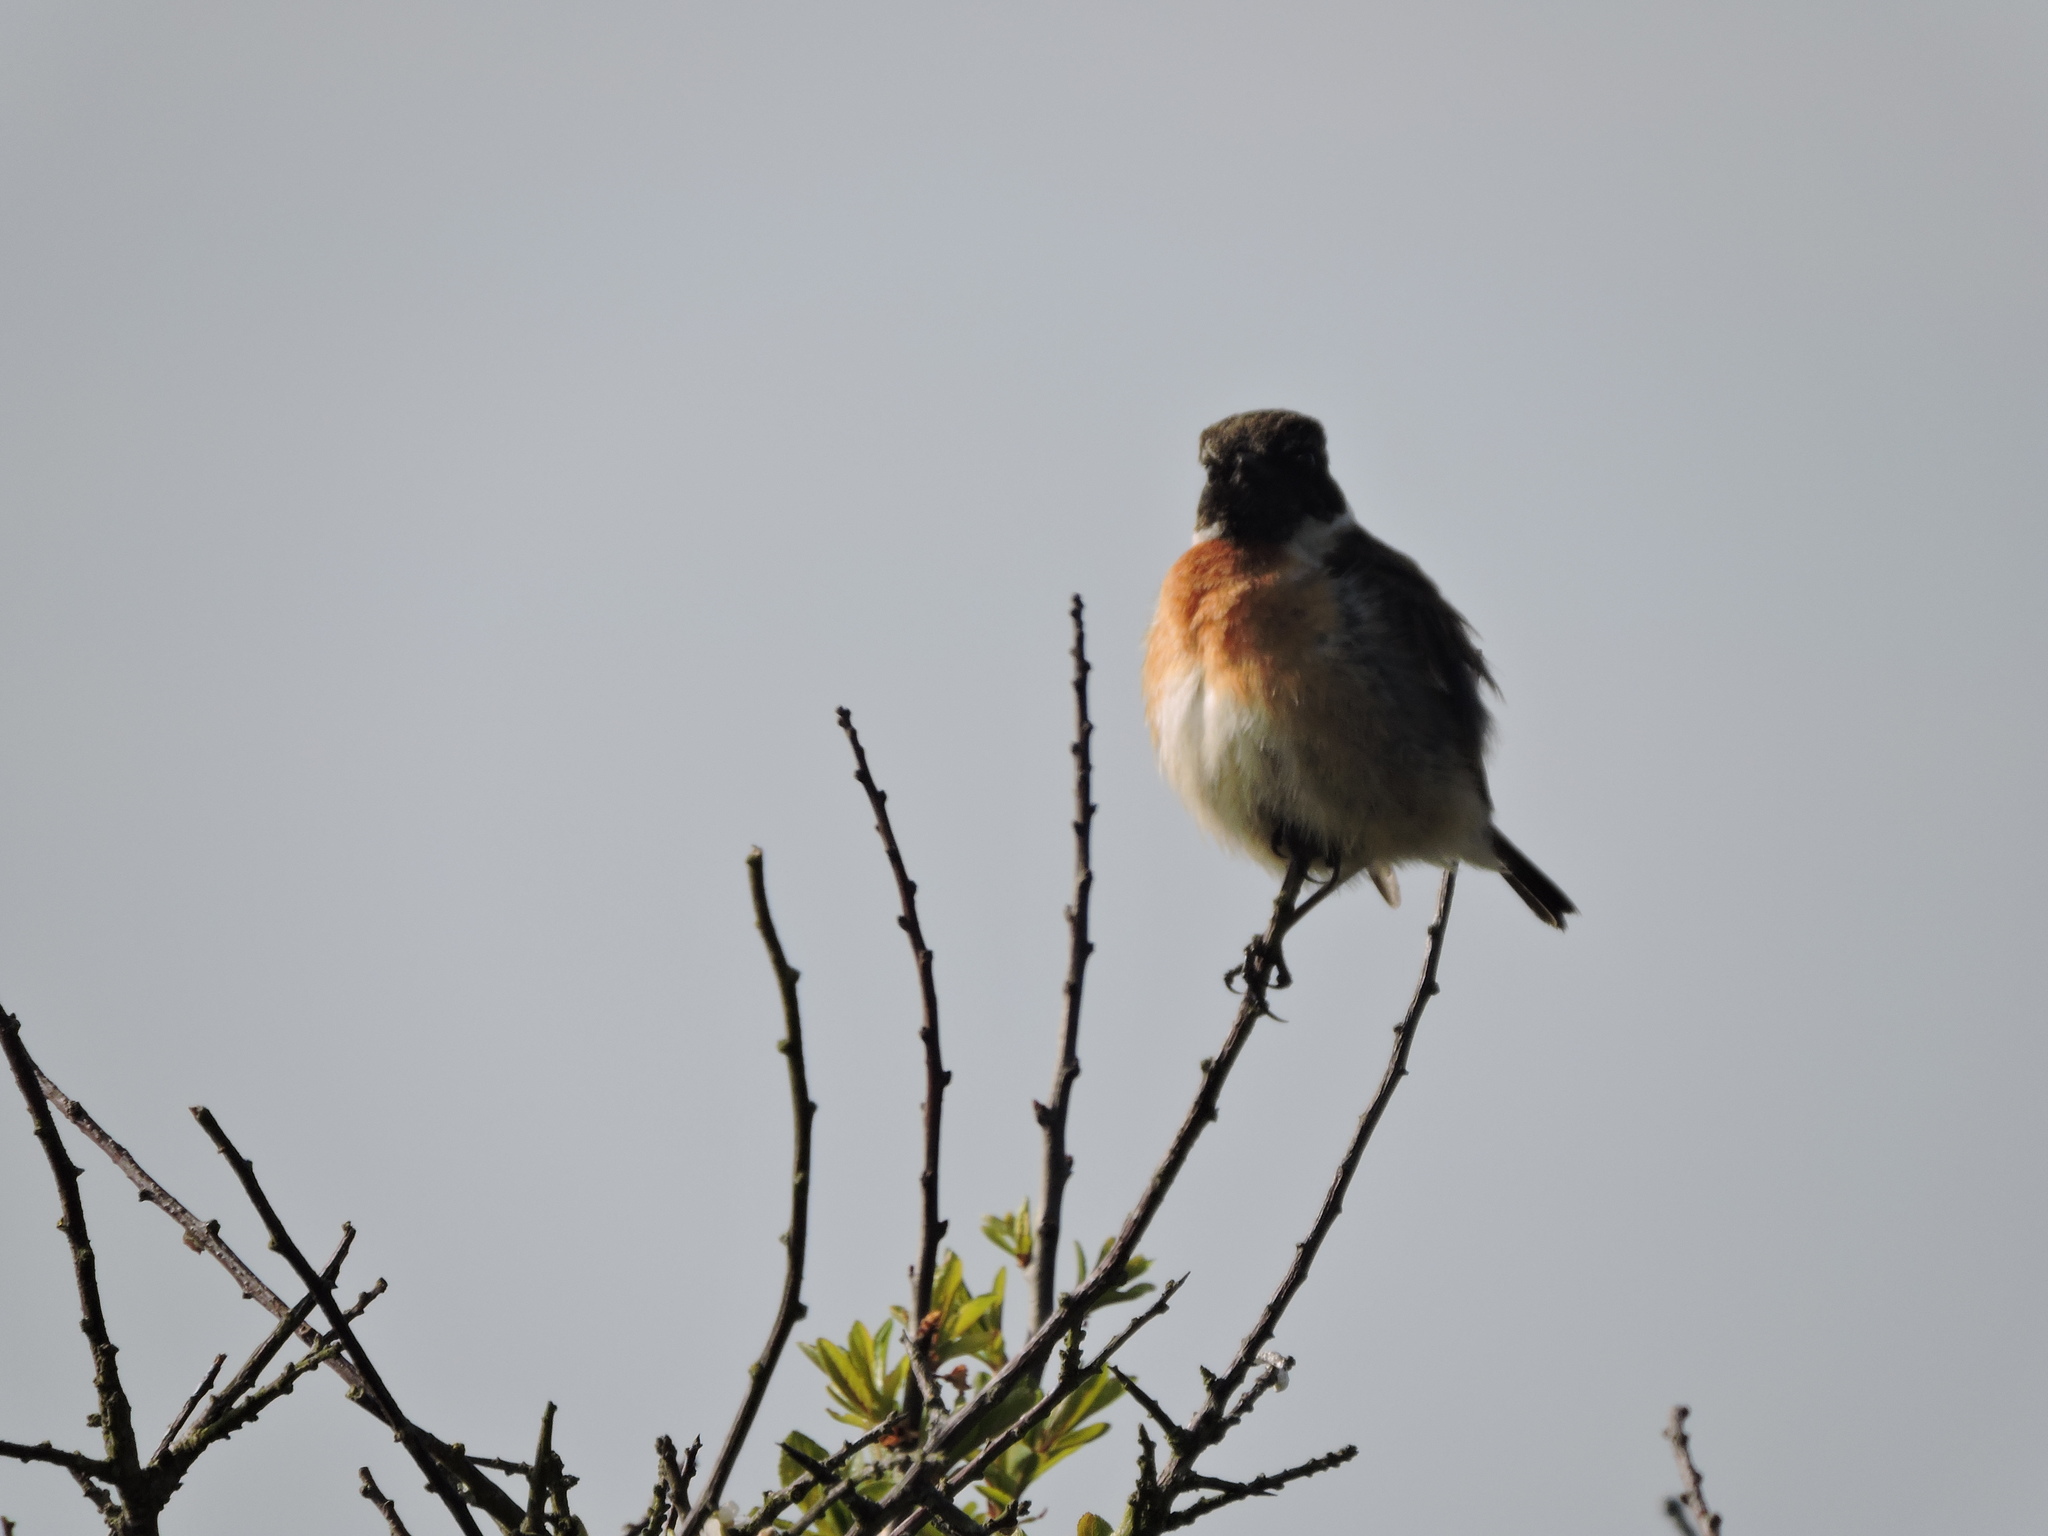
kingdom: Animalia
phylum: Chordata
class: Aves
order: Passeriformes
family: Muscicapidae
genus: Saxicola
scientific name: Saxicola rubicola
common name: European stonechat
